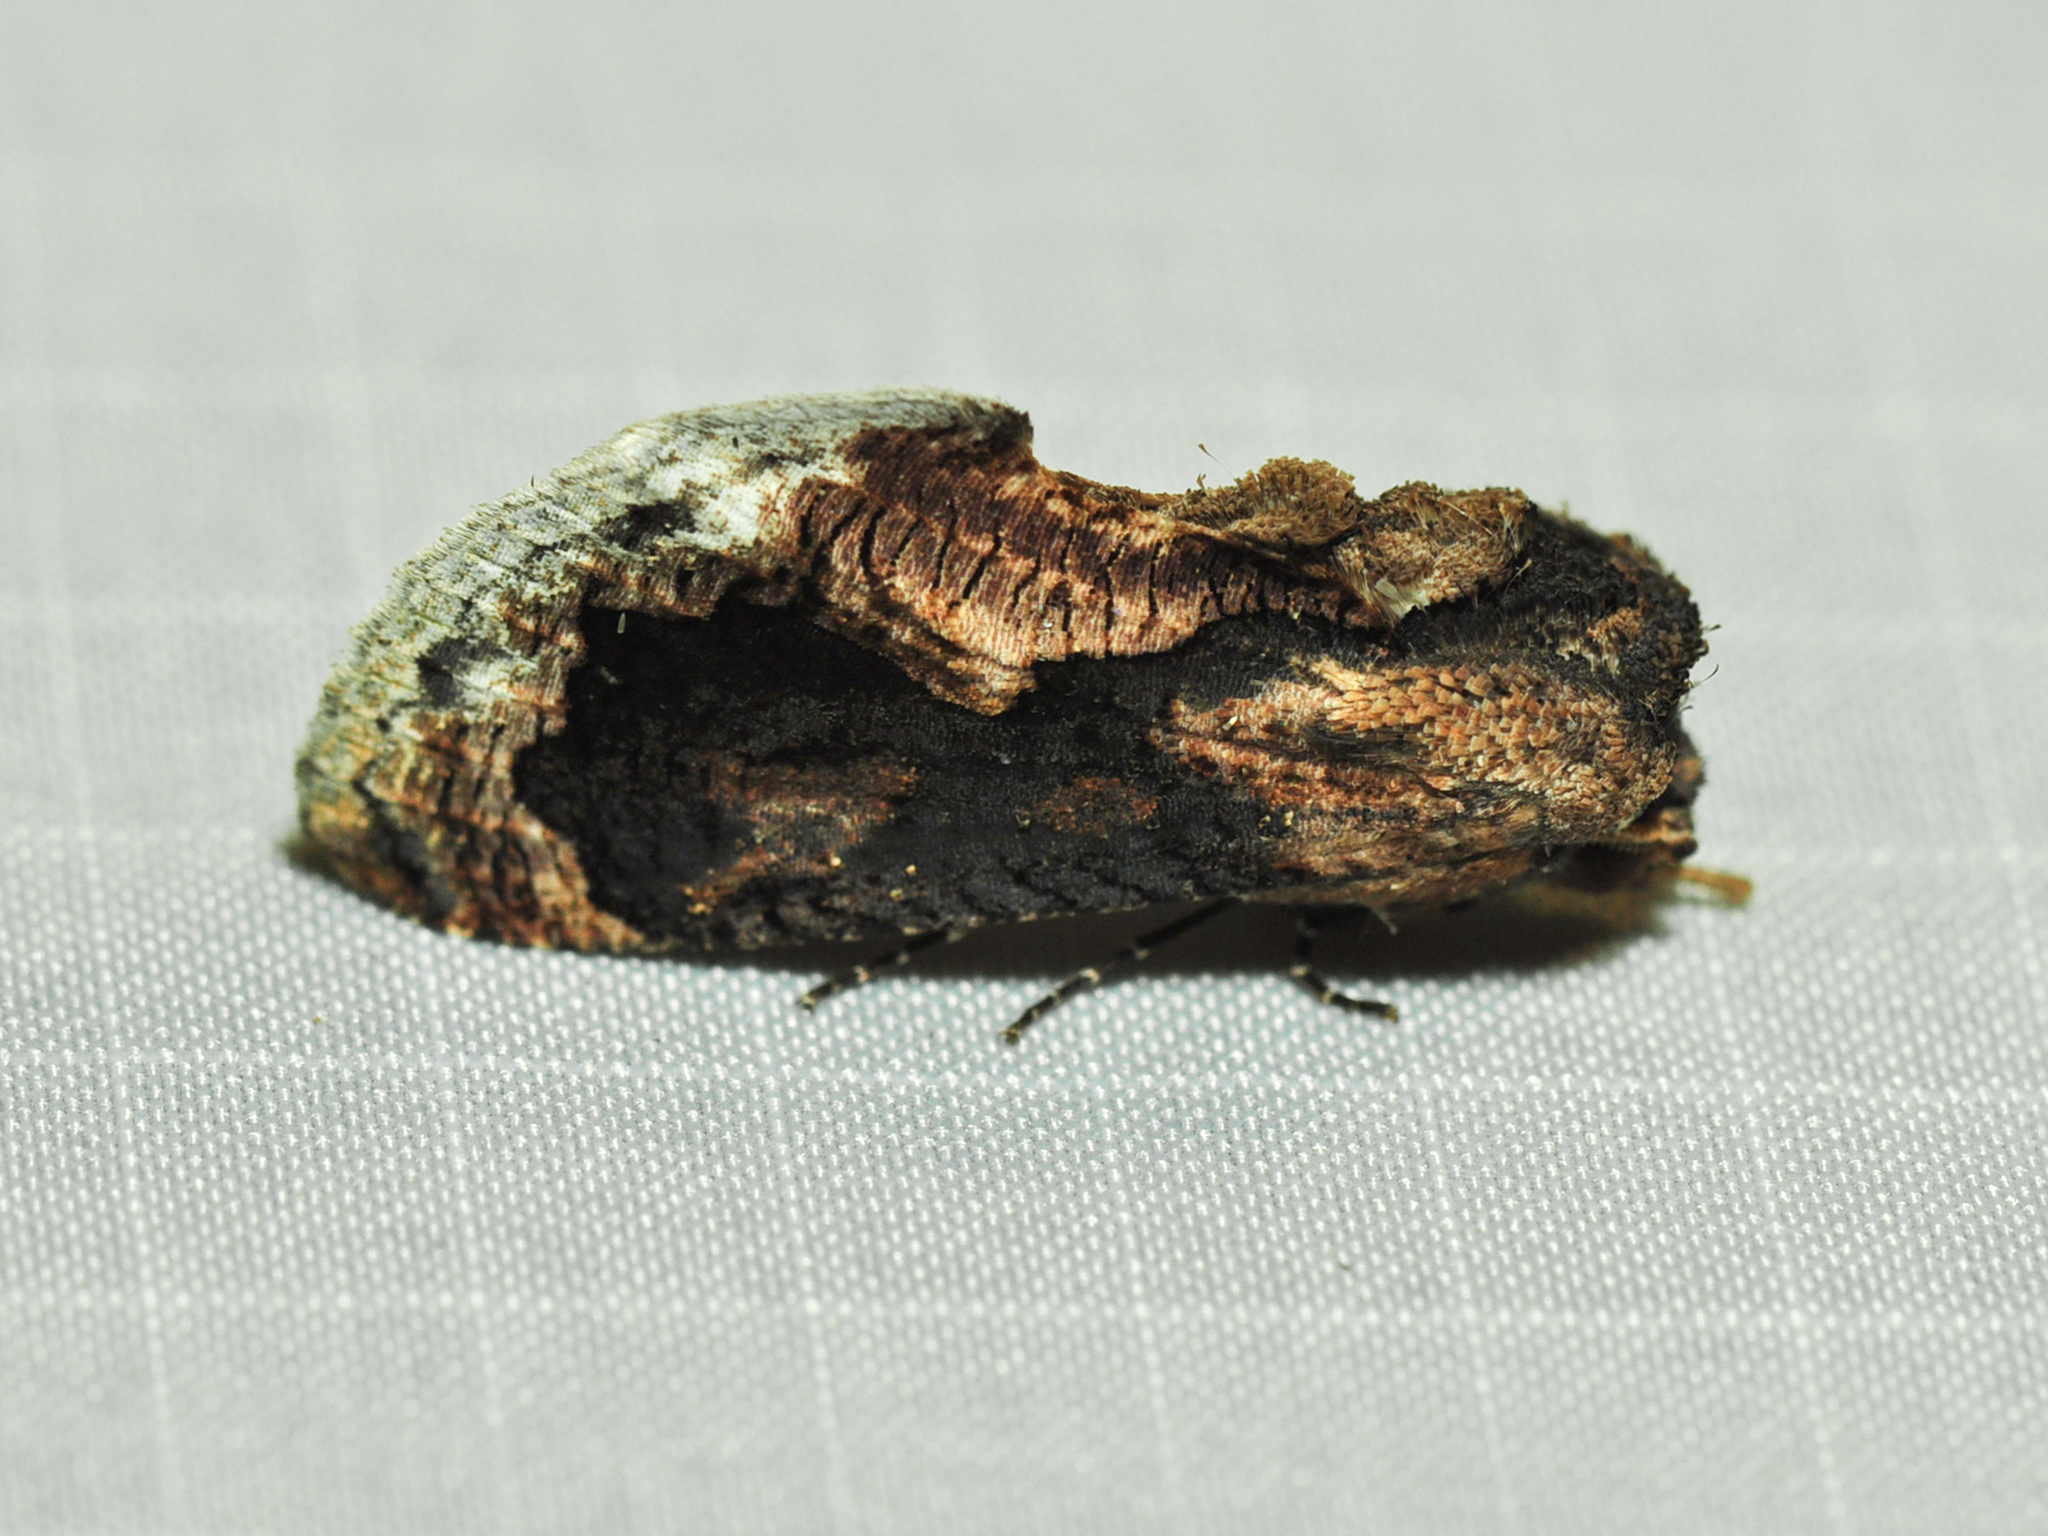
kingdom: Animalia
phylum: Arthropoda
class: Insecta
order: Lepidoptera
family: Erebidae
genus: Batracharta
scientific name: Batracharta divisa
